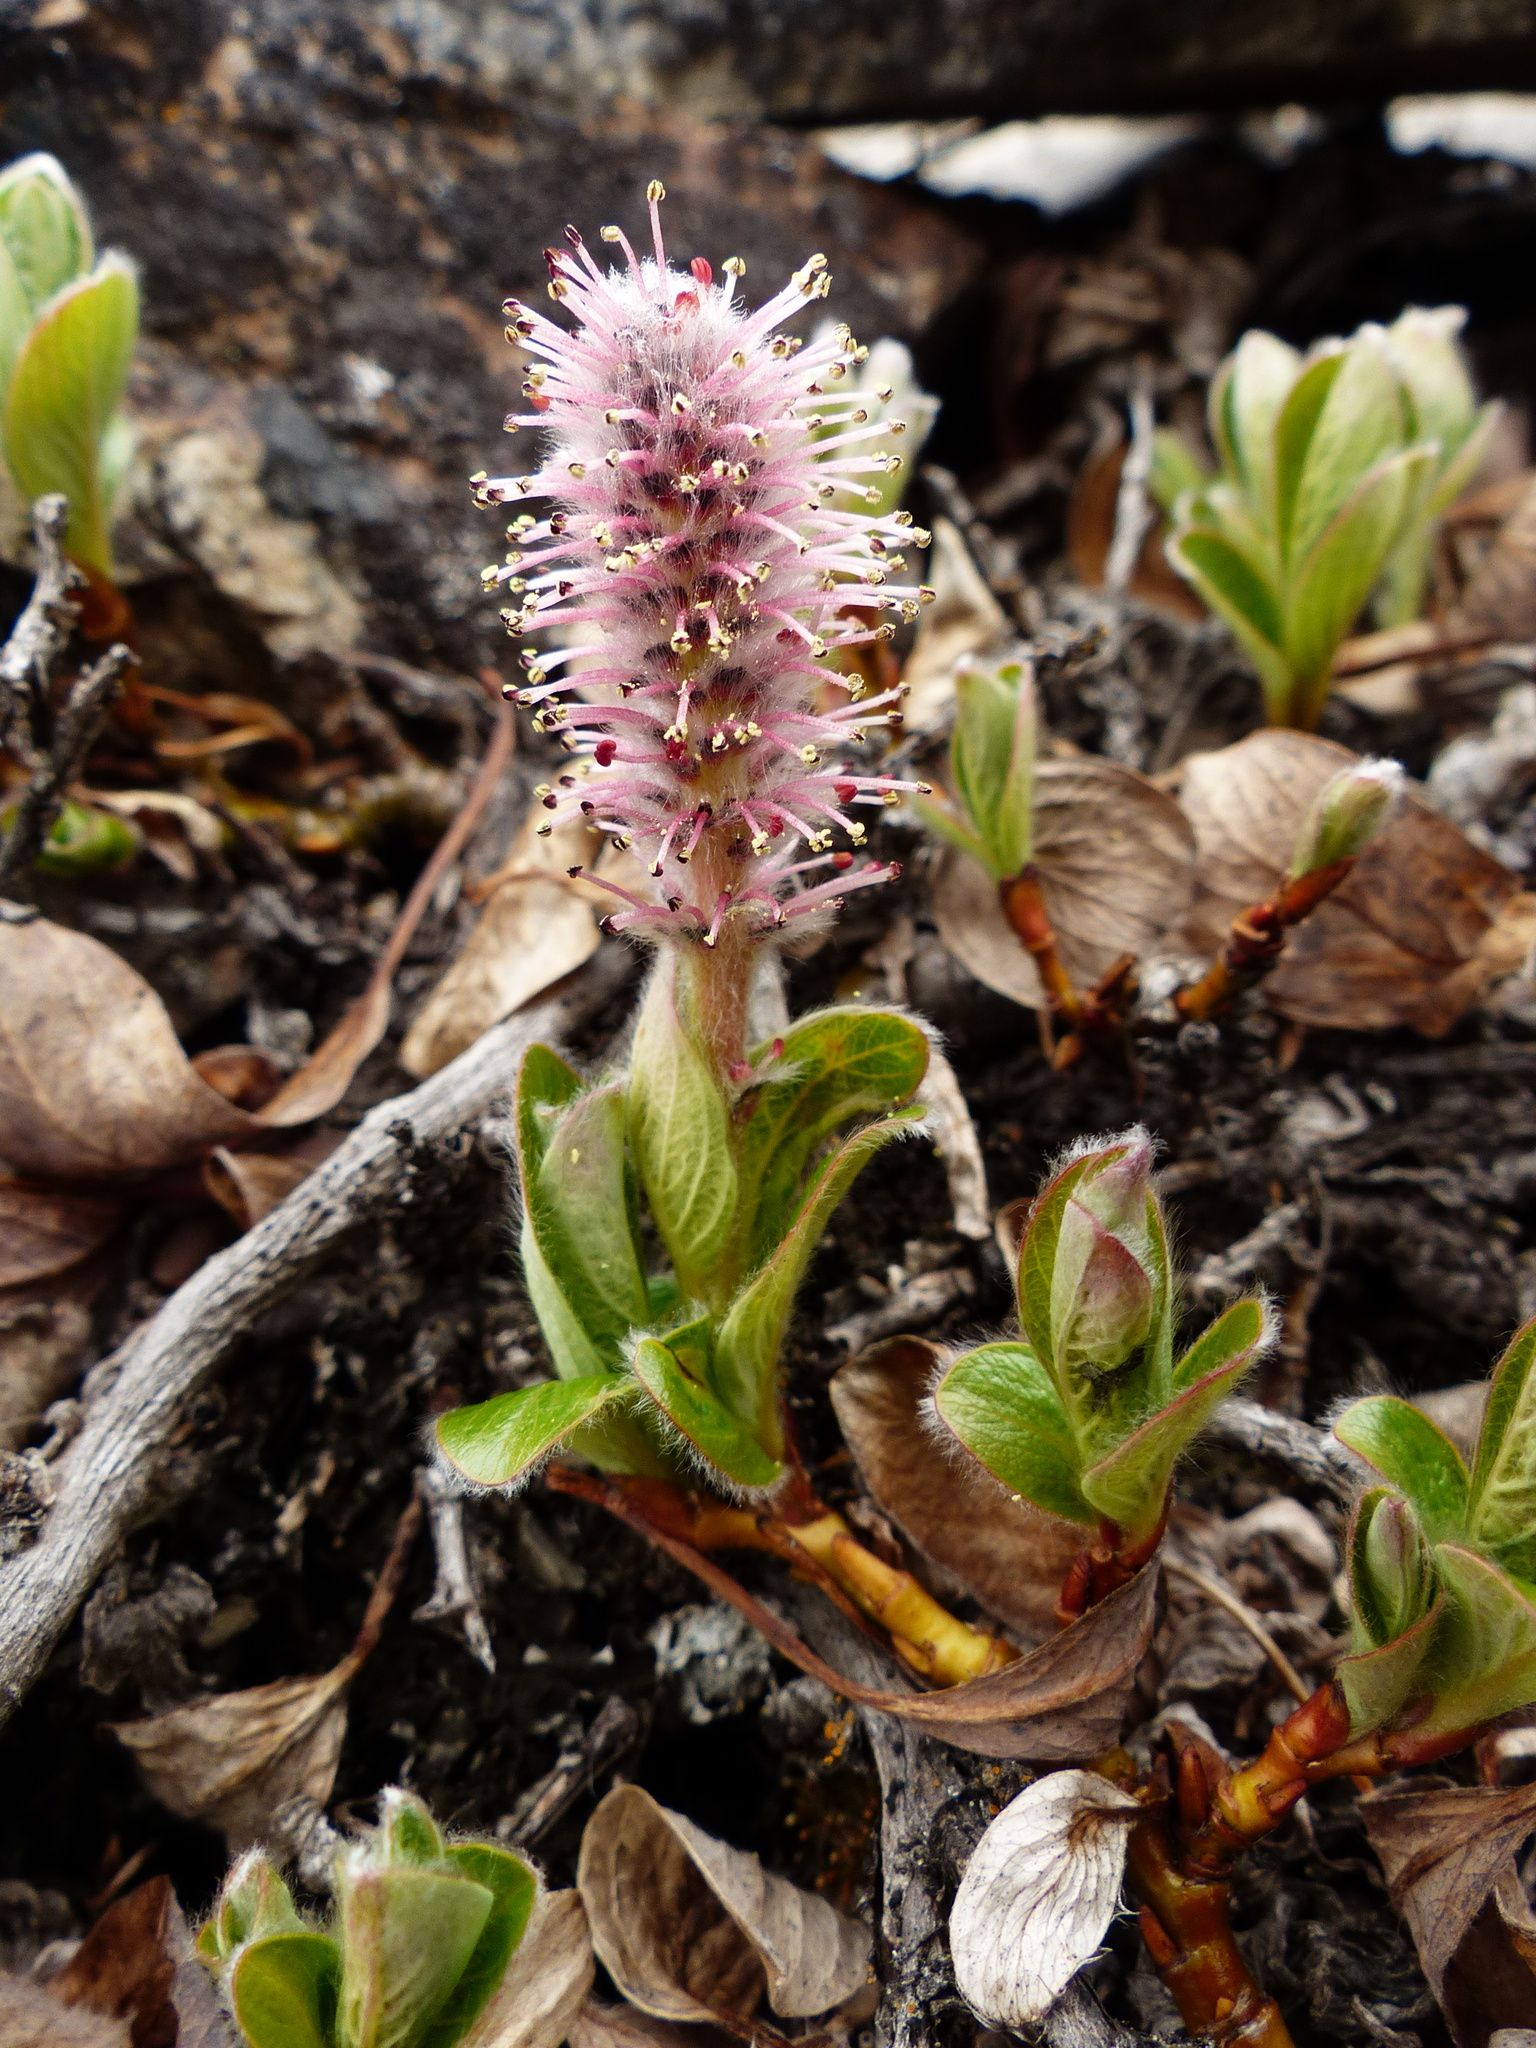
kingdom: Plantae
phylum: Tracheophyta
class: Magnoliopsida
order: Malpighiales
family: Salicaceae
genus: Salix
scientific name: Salix arctica
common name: Arctic willow
